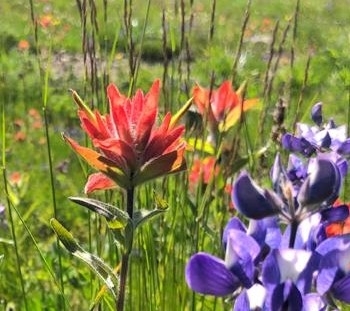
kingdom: Plantae
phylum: Tracheophyta
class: Magnoliopsida
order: Lamiales
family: Orobanchaceae
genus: Castilleja
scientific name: Castilleja elmeri
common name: Elmer's paintbrush
